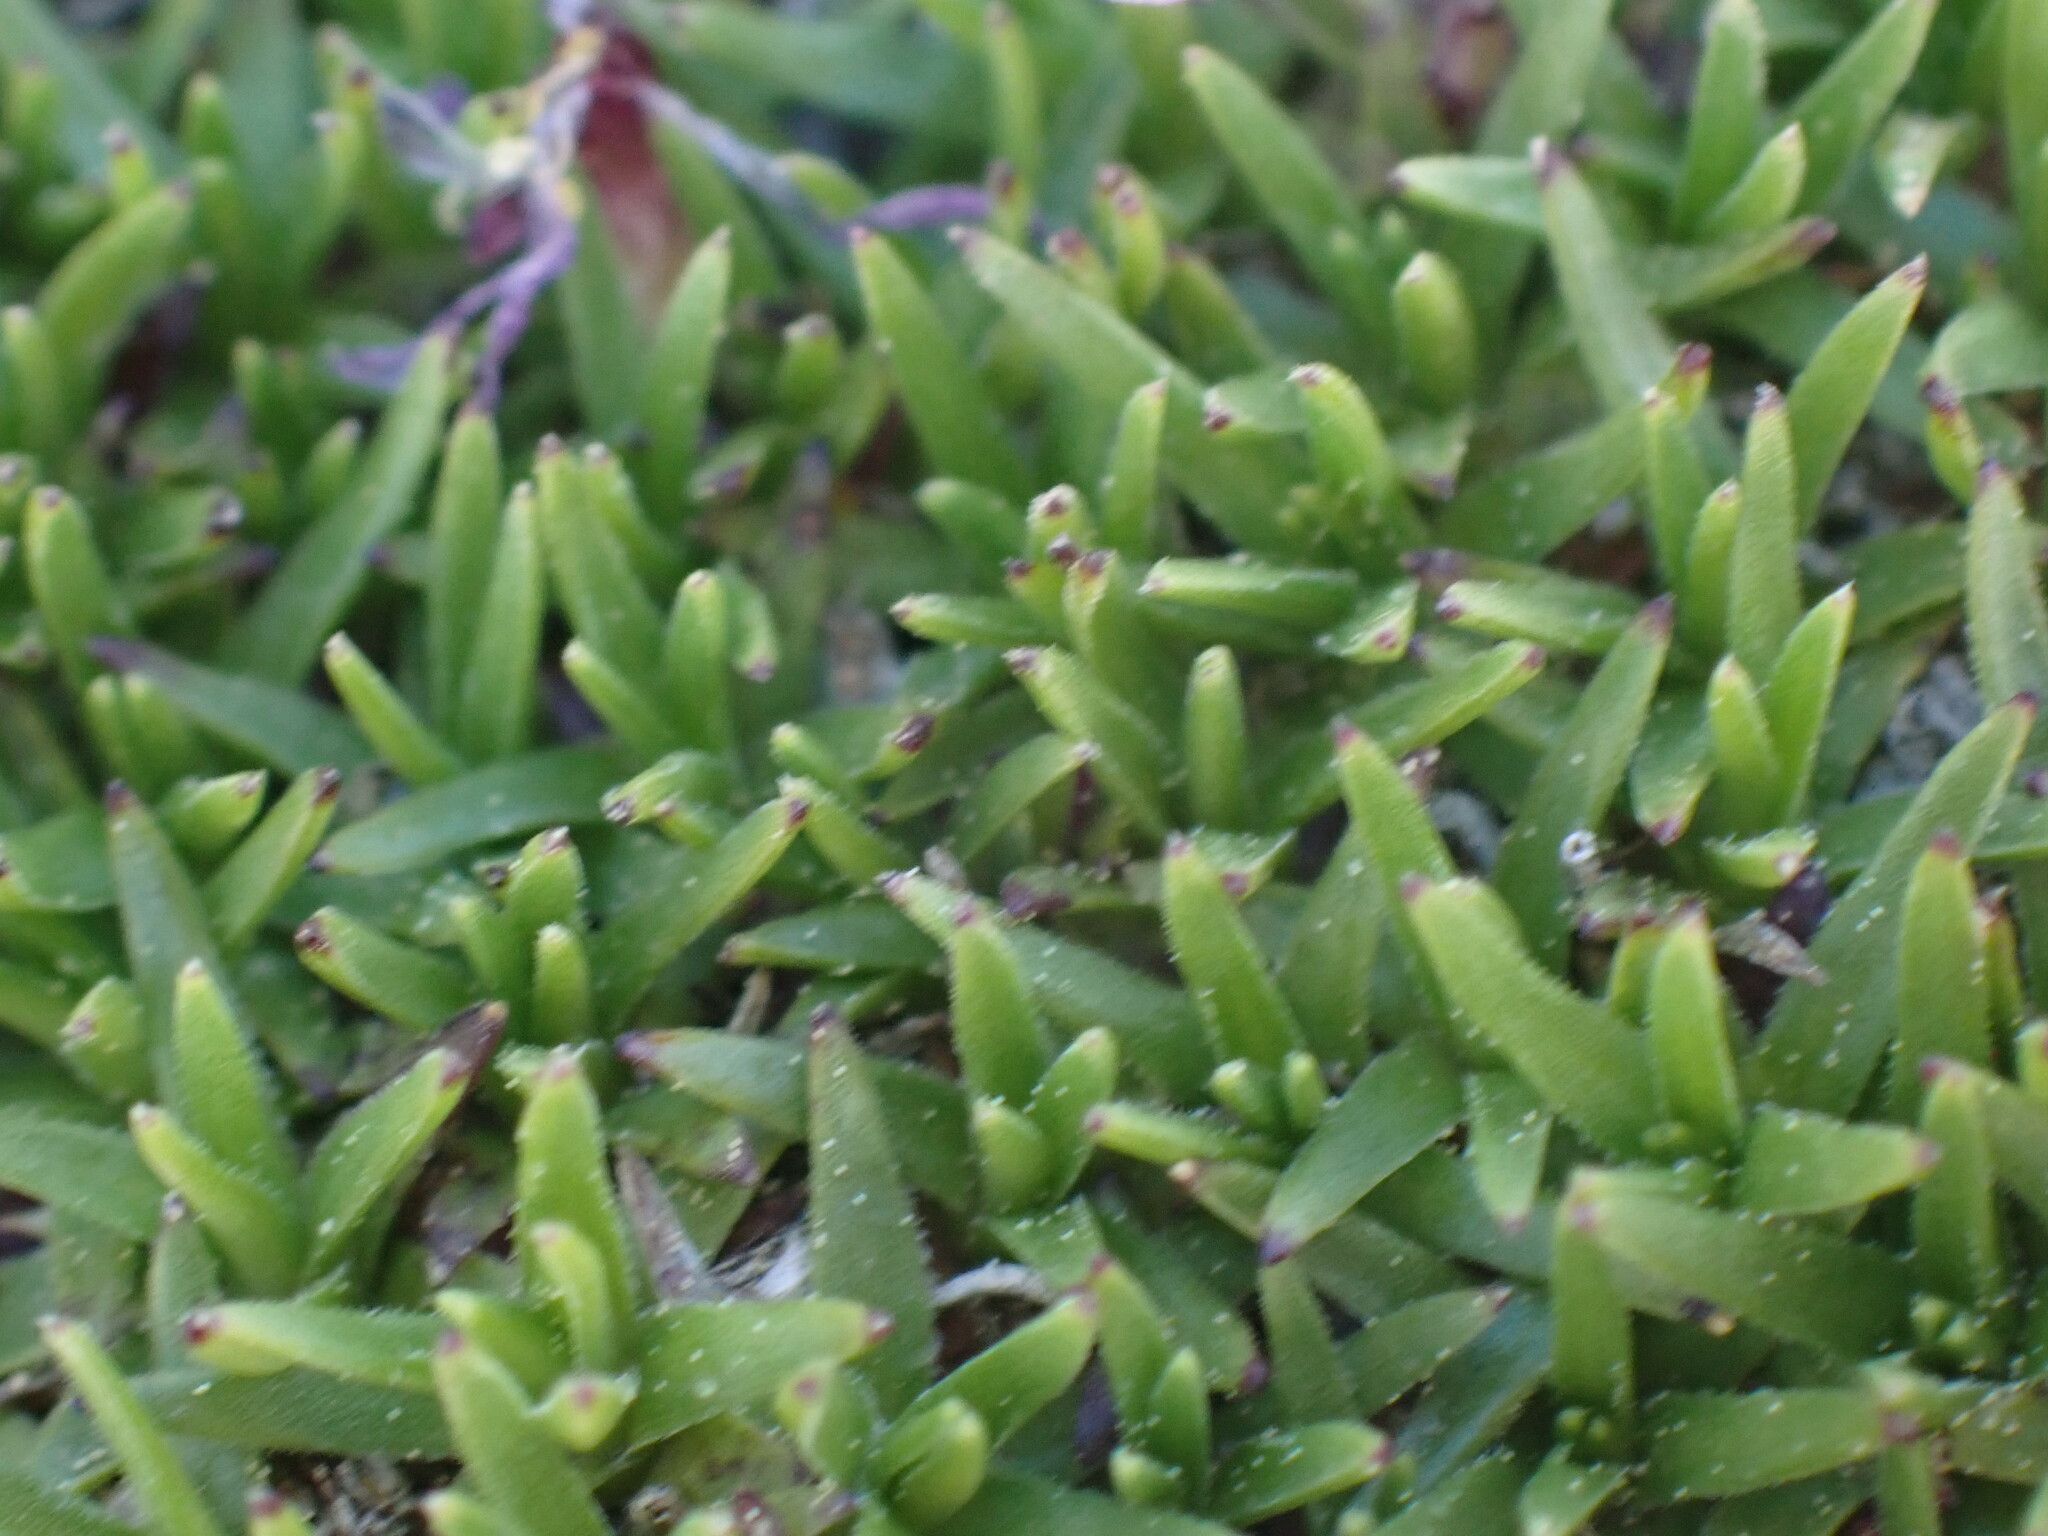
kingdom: Plantae
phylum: Tracheophyta
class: Magnoliopsida
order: Caryophyllales
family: Caryophyllaceae
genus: Silene
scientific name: Silene acaulis
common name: Moss campion
